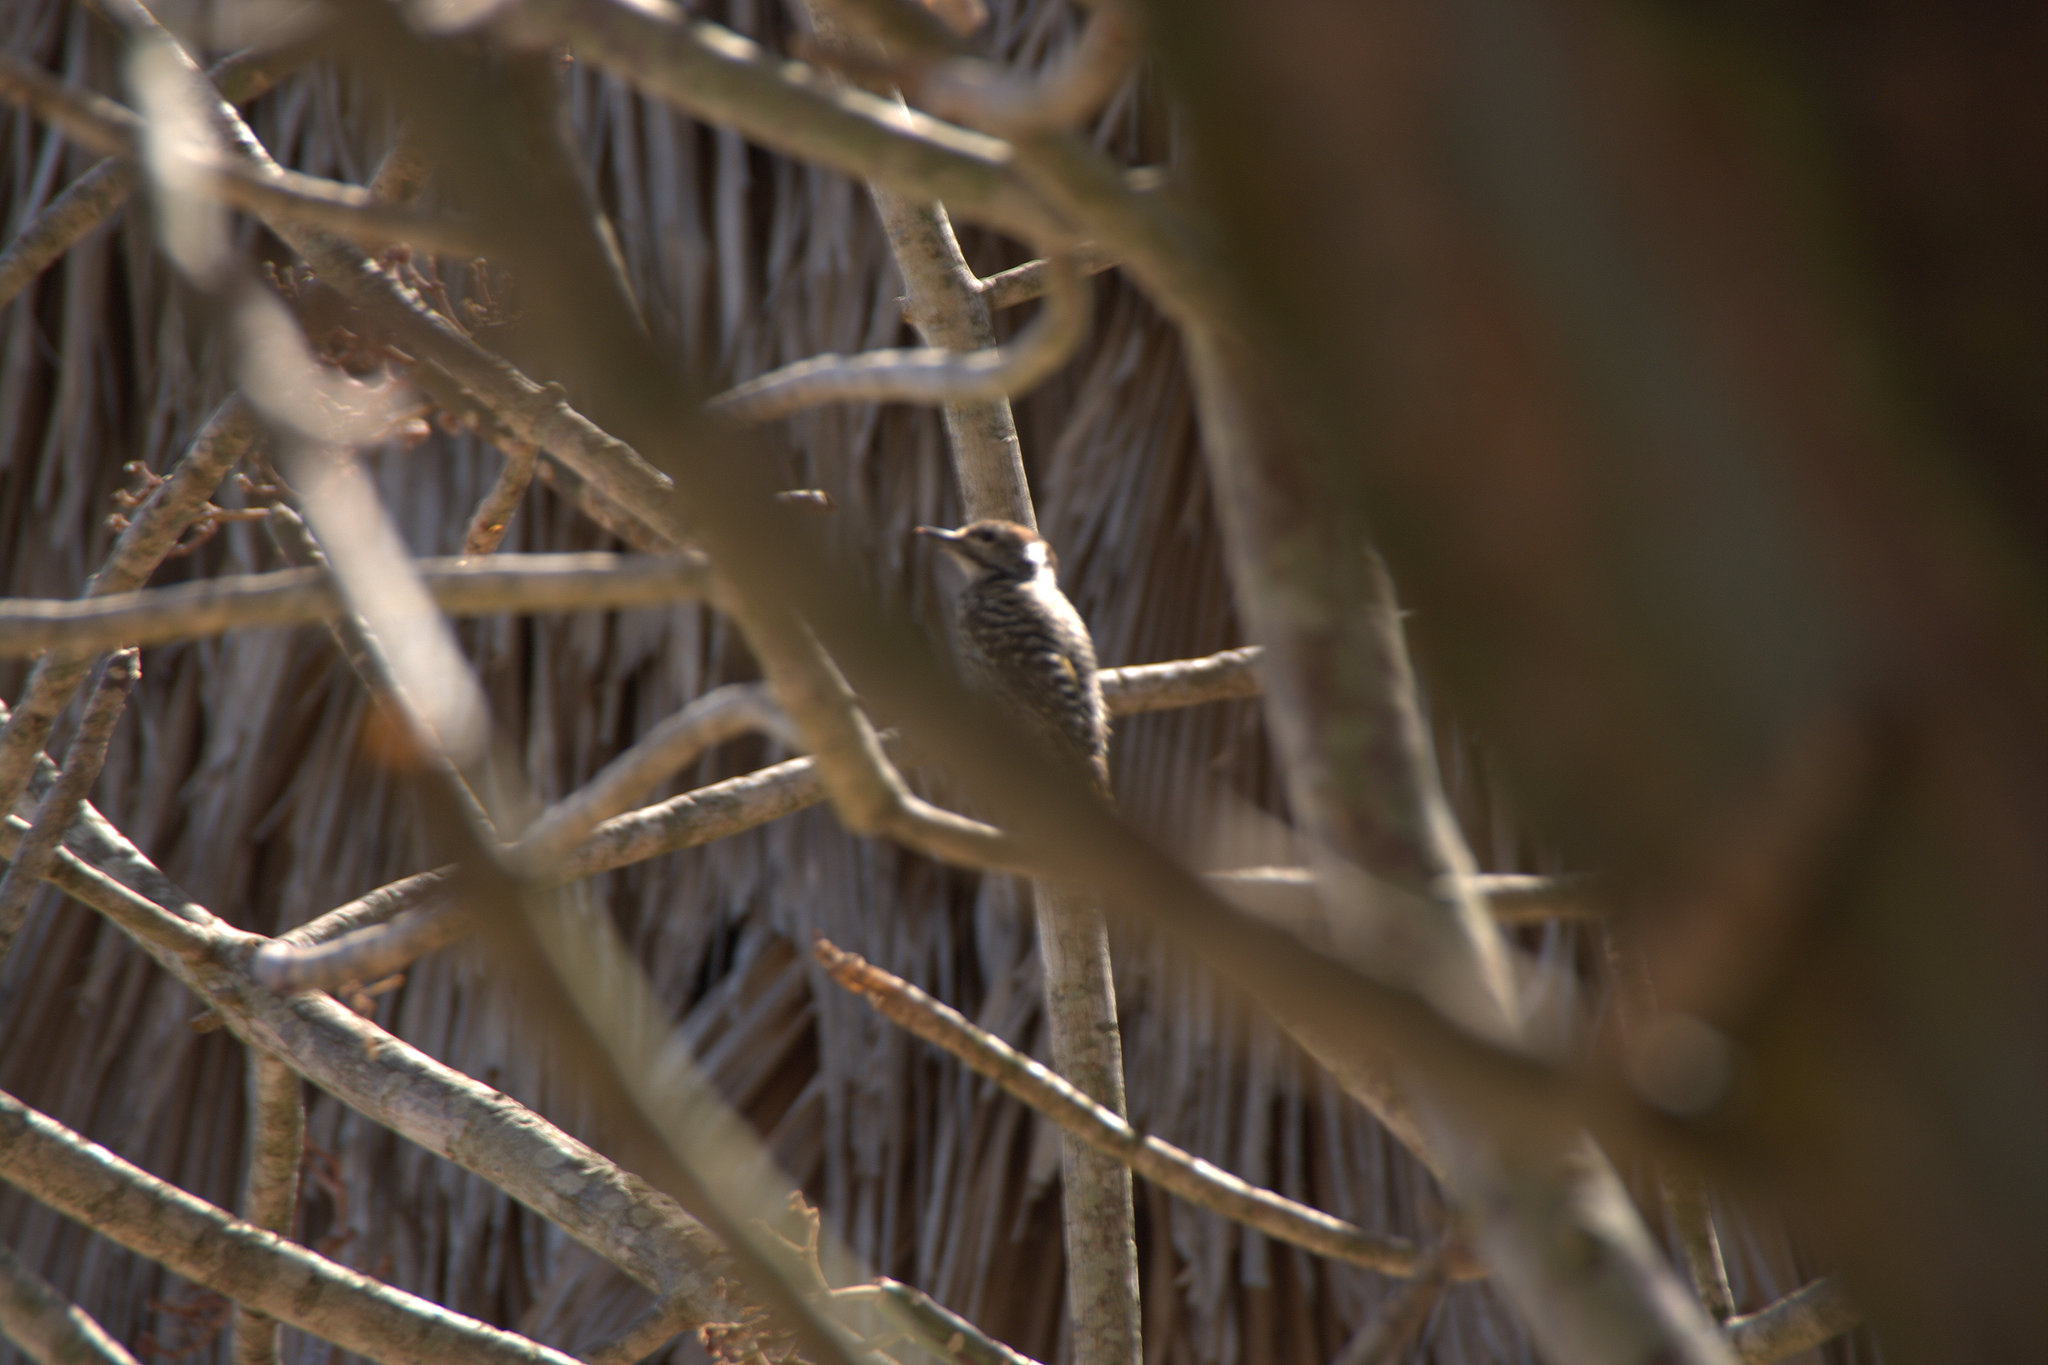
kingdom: Animalia
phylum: Chordata
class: Aves
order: Piciformes
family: Picidae
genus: Dendropicos
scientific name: Dendropicos fuscescens
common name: Cardinal woodpecker
